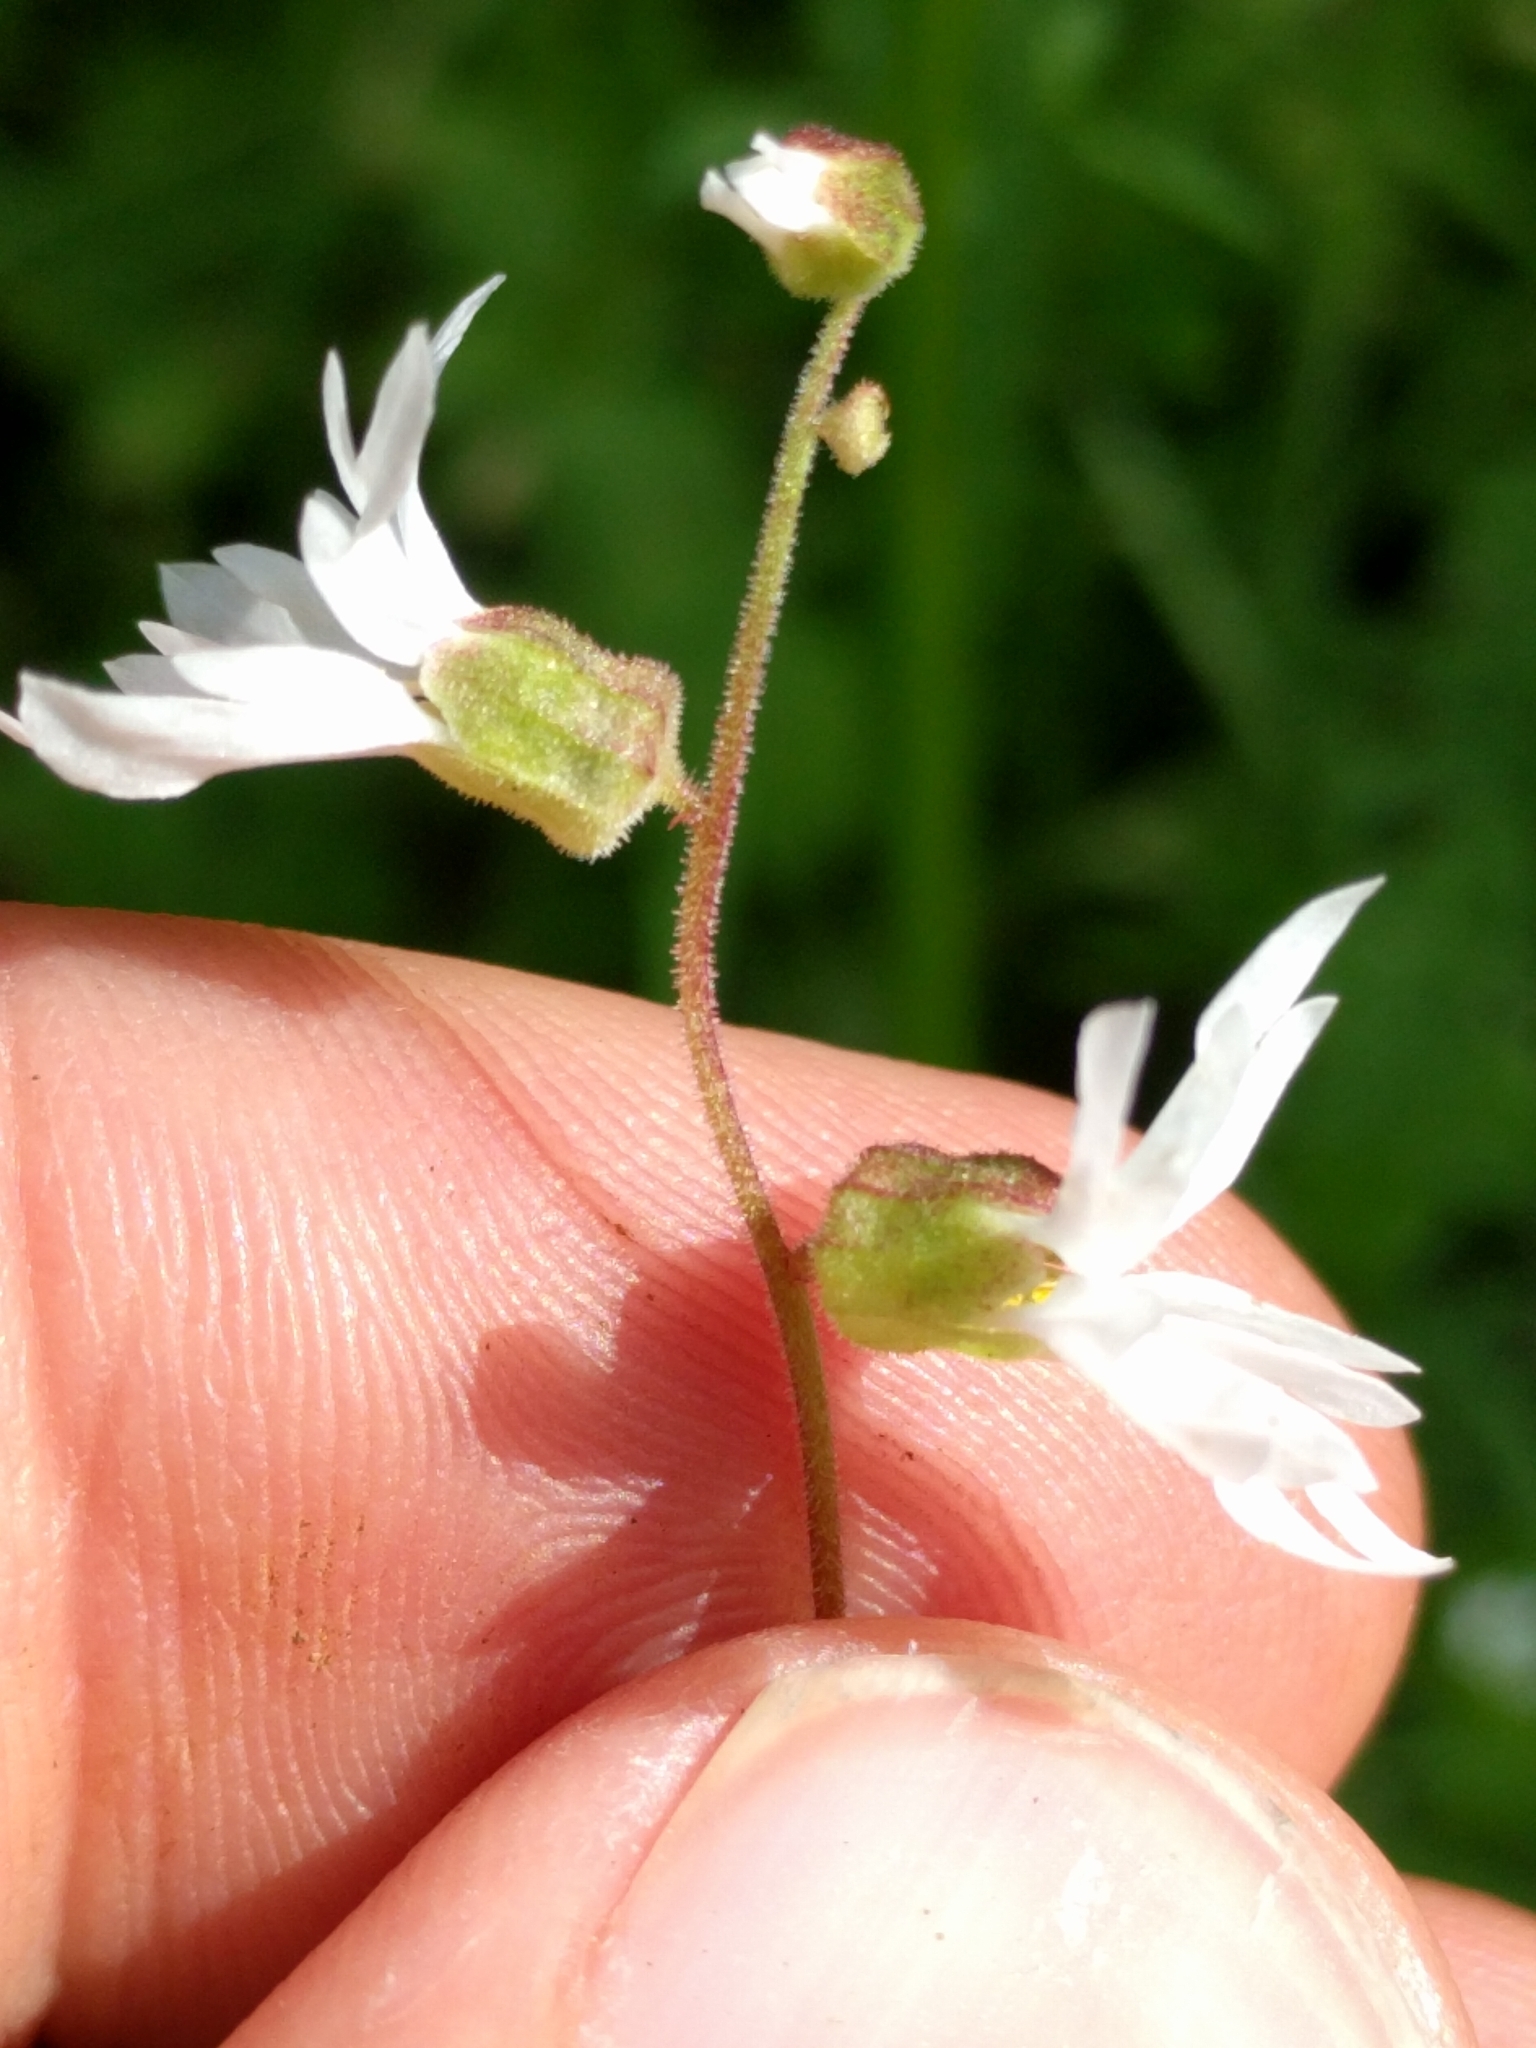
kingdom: Plantae
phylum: Tracheophyta
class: Magnoliopsida
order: Saxifragales
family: Saxifragaceae
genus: Lithophragma
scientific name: Lithophragma heterophyllum
